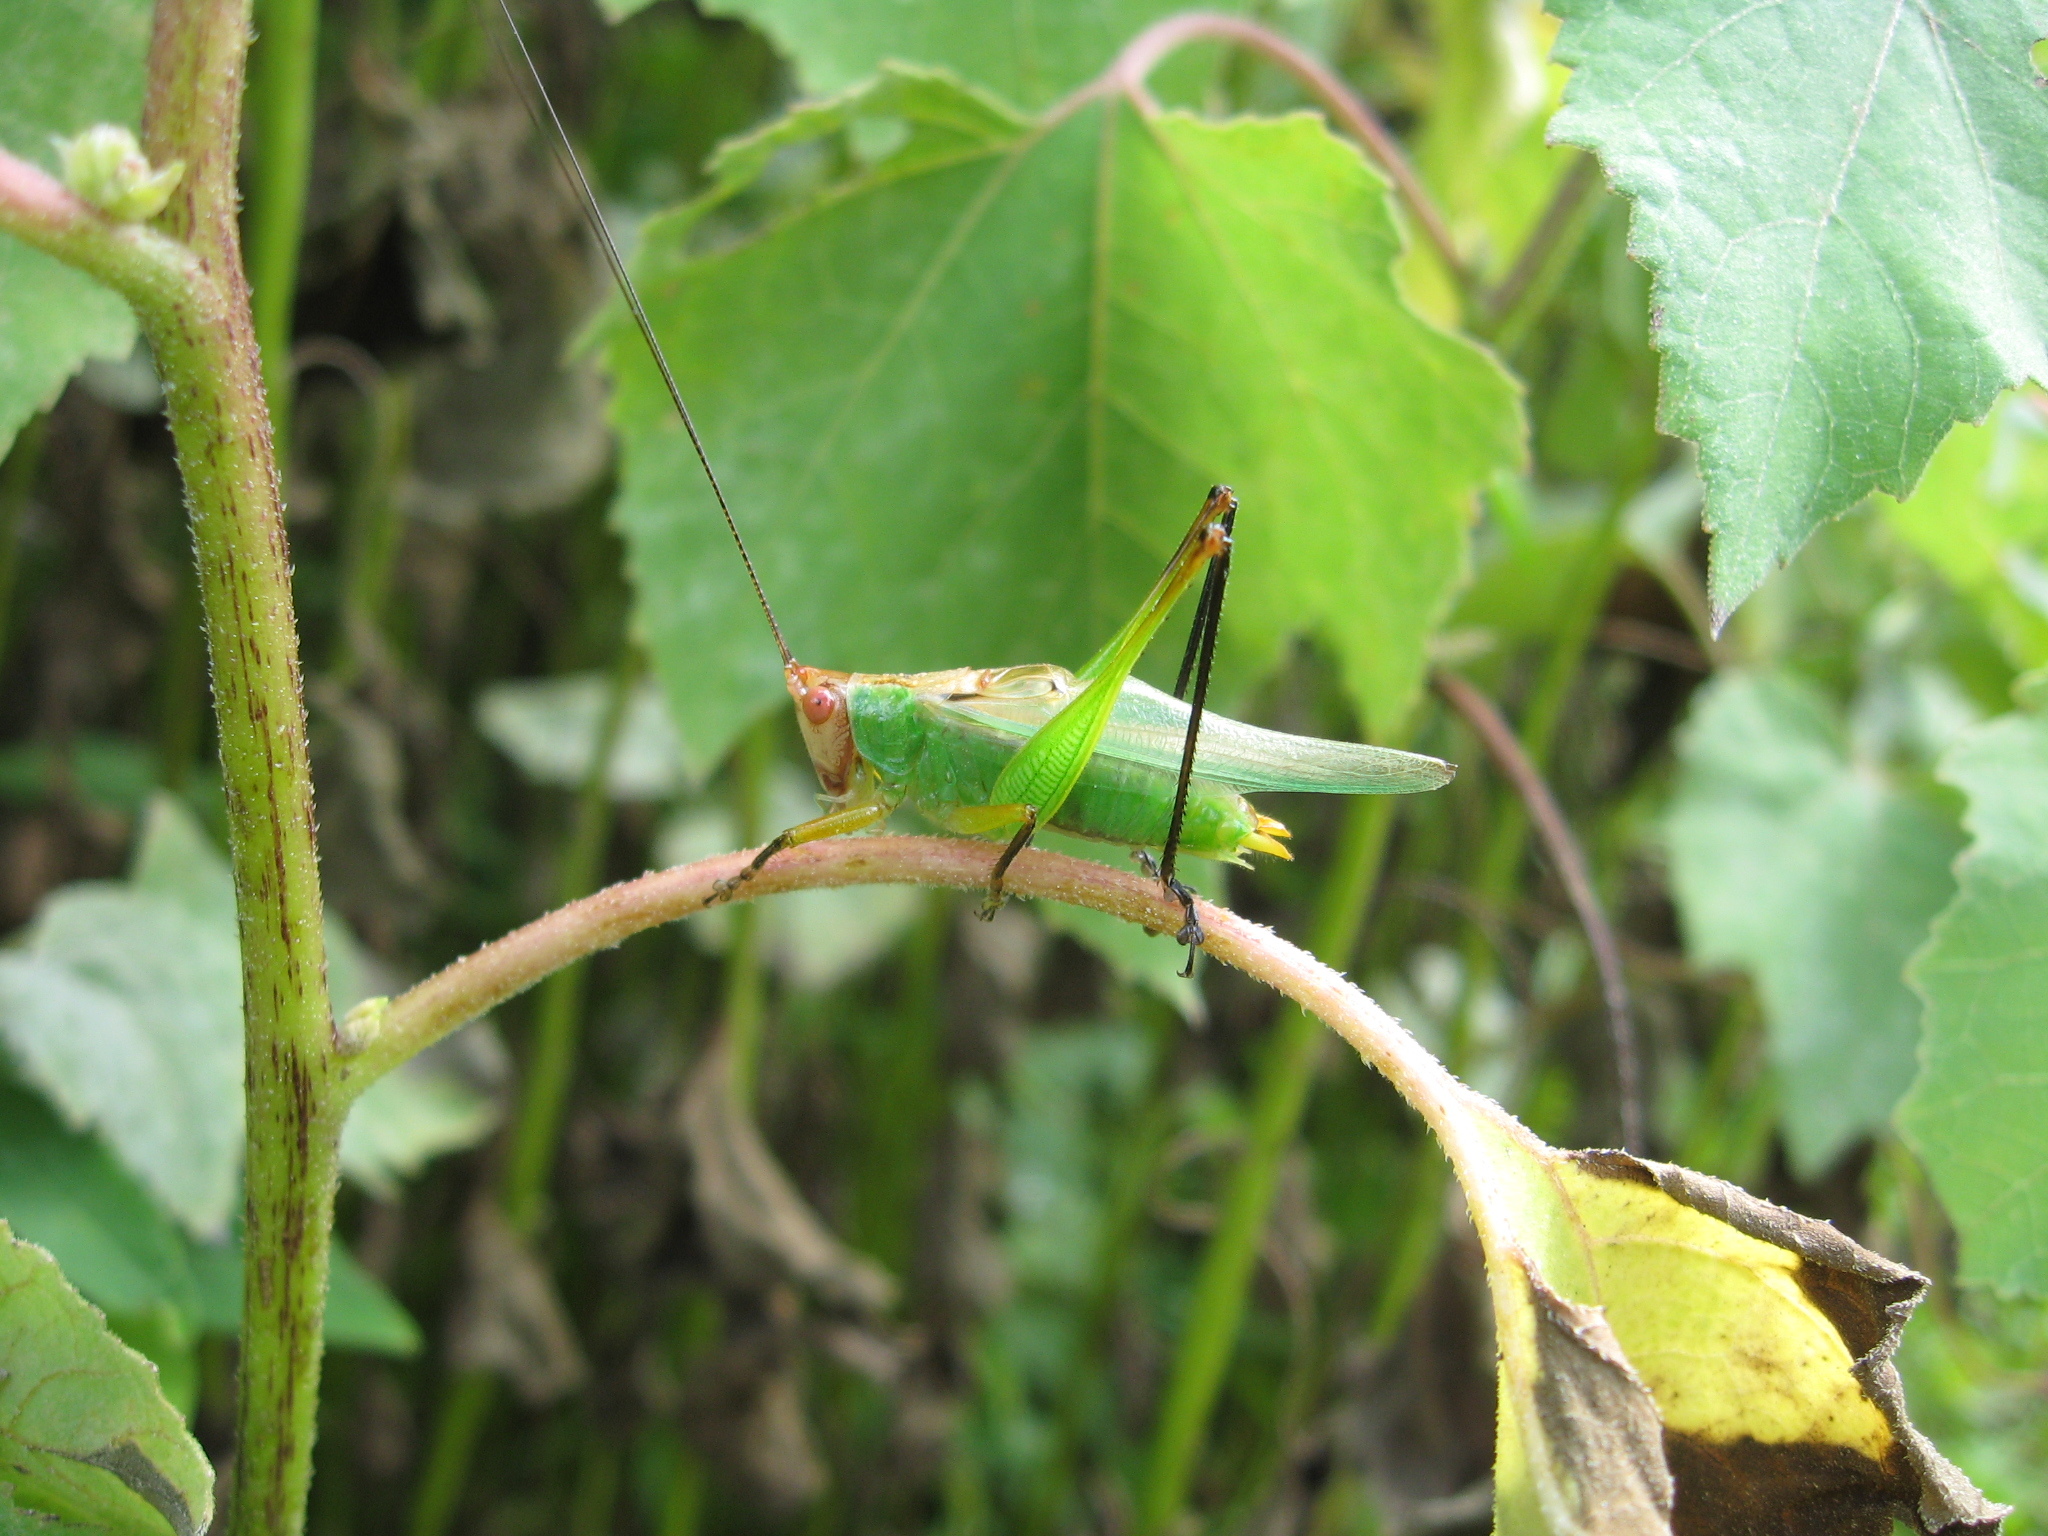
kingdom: Animalia
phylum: Arthropoda
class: Insecta
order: Orthoptera
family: Tettigoniidae
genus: Orchelimum
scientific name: Orchelimum nigripes
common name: Black-legged meadow katydid
